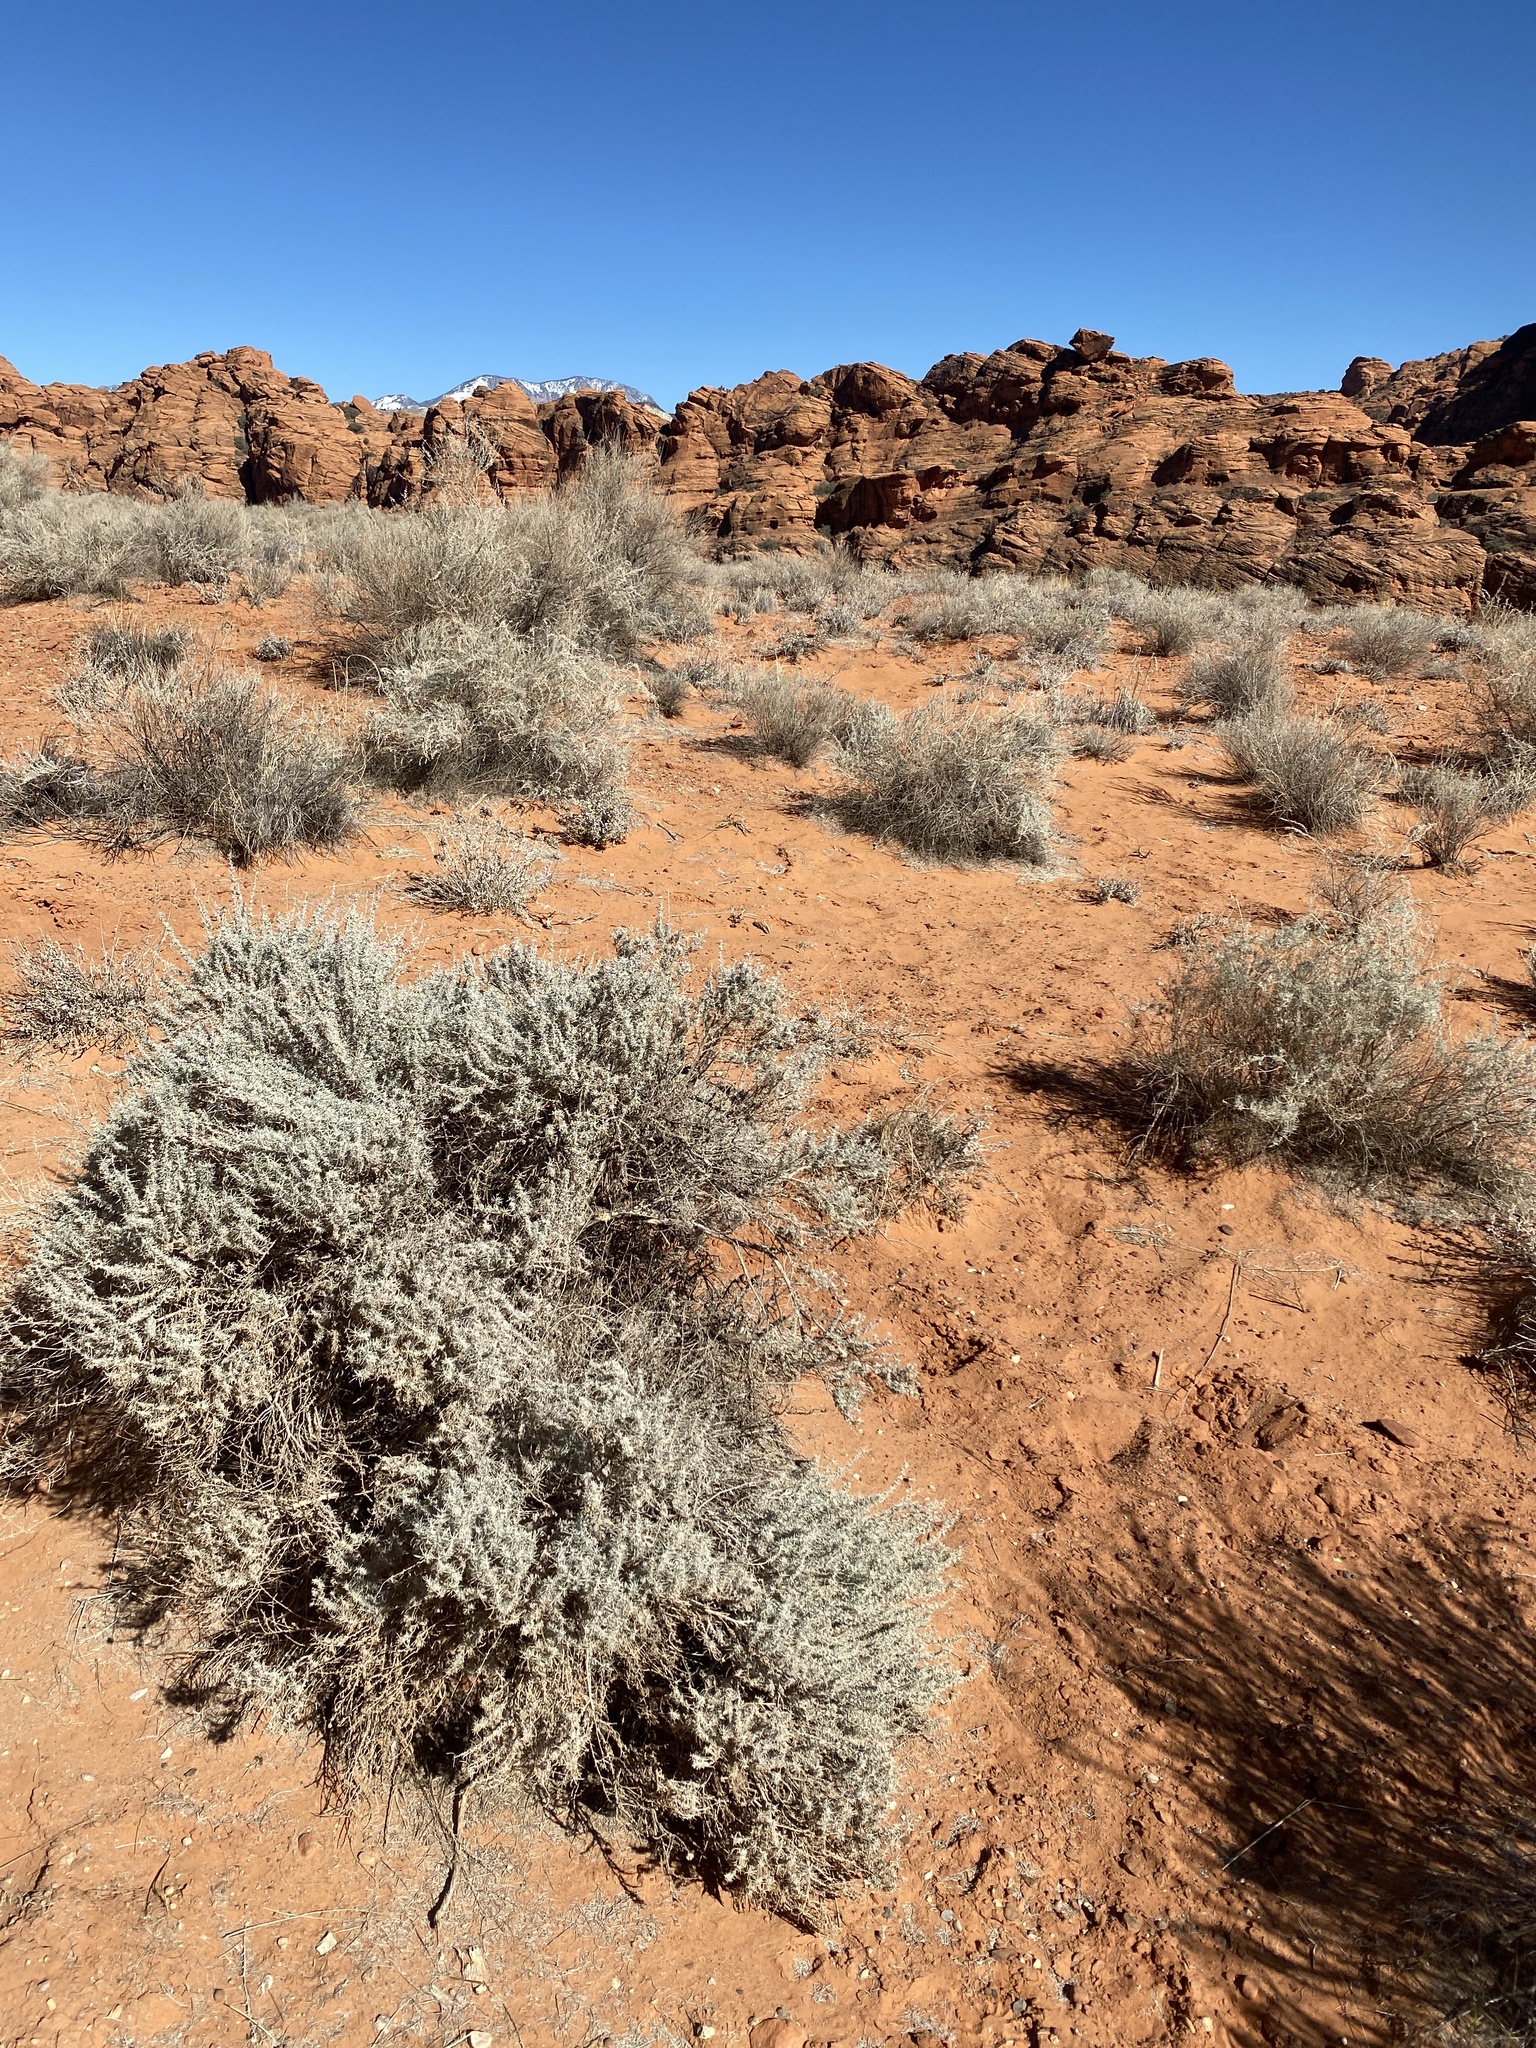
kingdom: Plantae
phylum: Tracheophyta
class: Magnoliopsida
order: Asterales
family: Asteraceae
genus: Artemisia
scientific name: Artemisia filifolia
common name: Sand-sage
